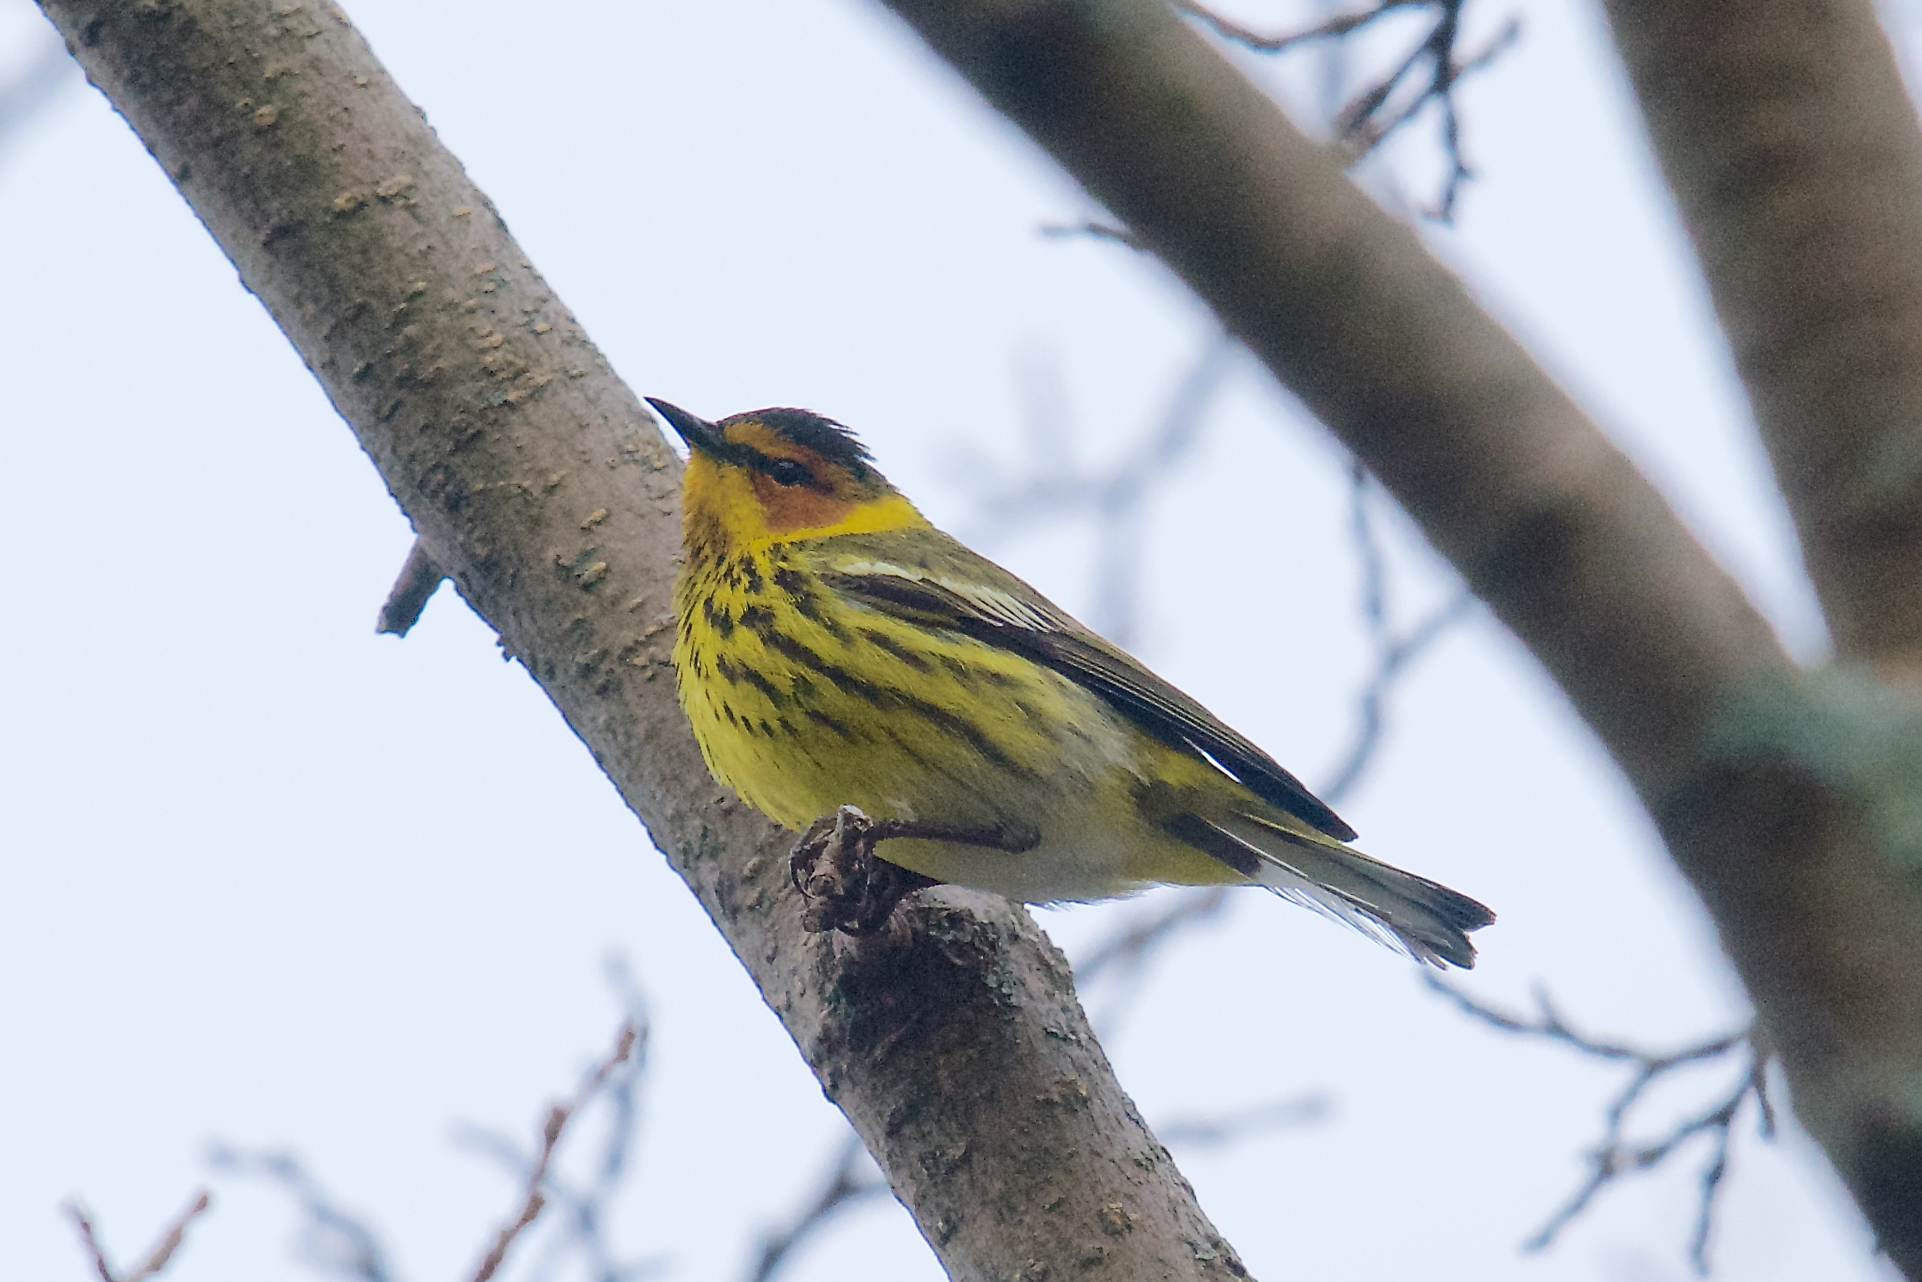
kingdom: Animalia
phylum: Chordata
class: Aves
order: Passeriformes
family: Parulidae
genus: Setophaga
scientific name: Setophaga tigrina
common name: Cape may warbler
